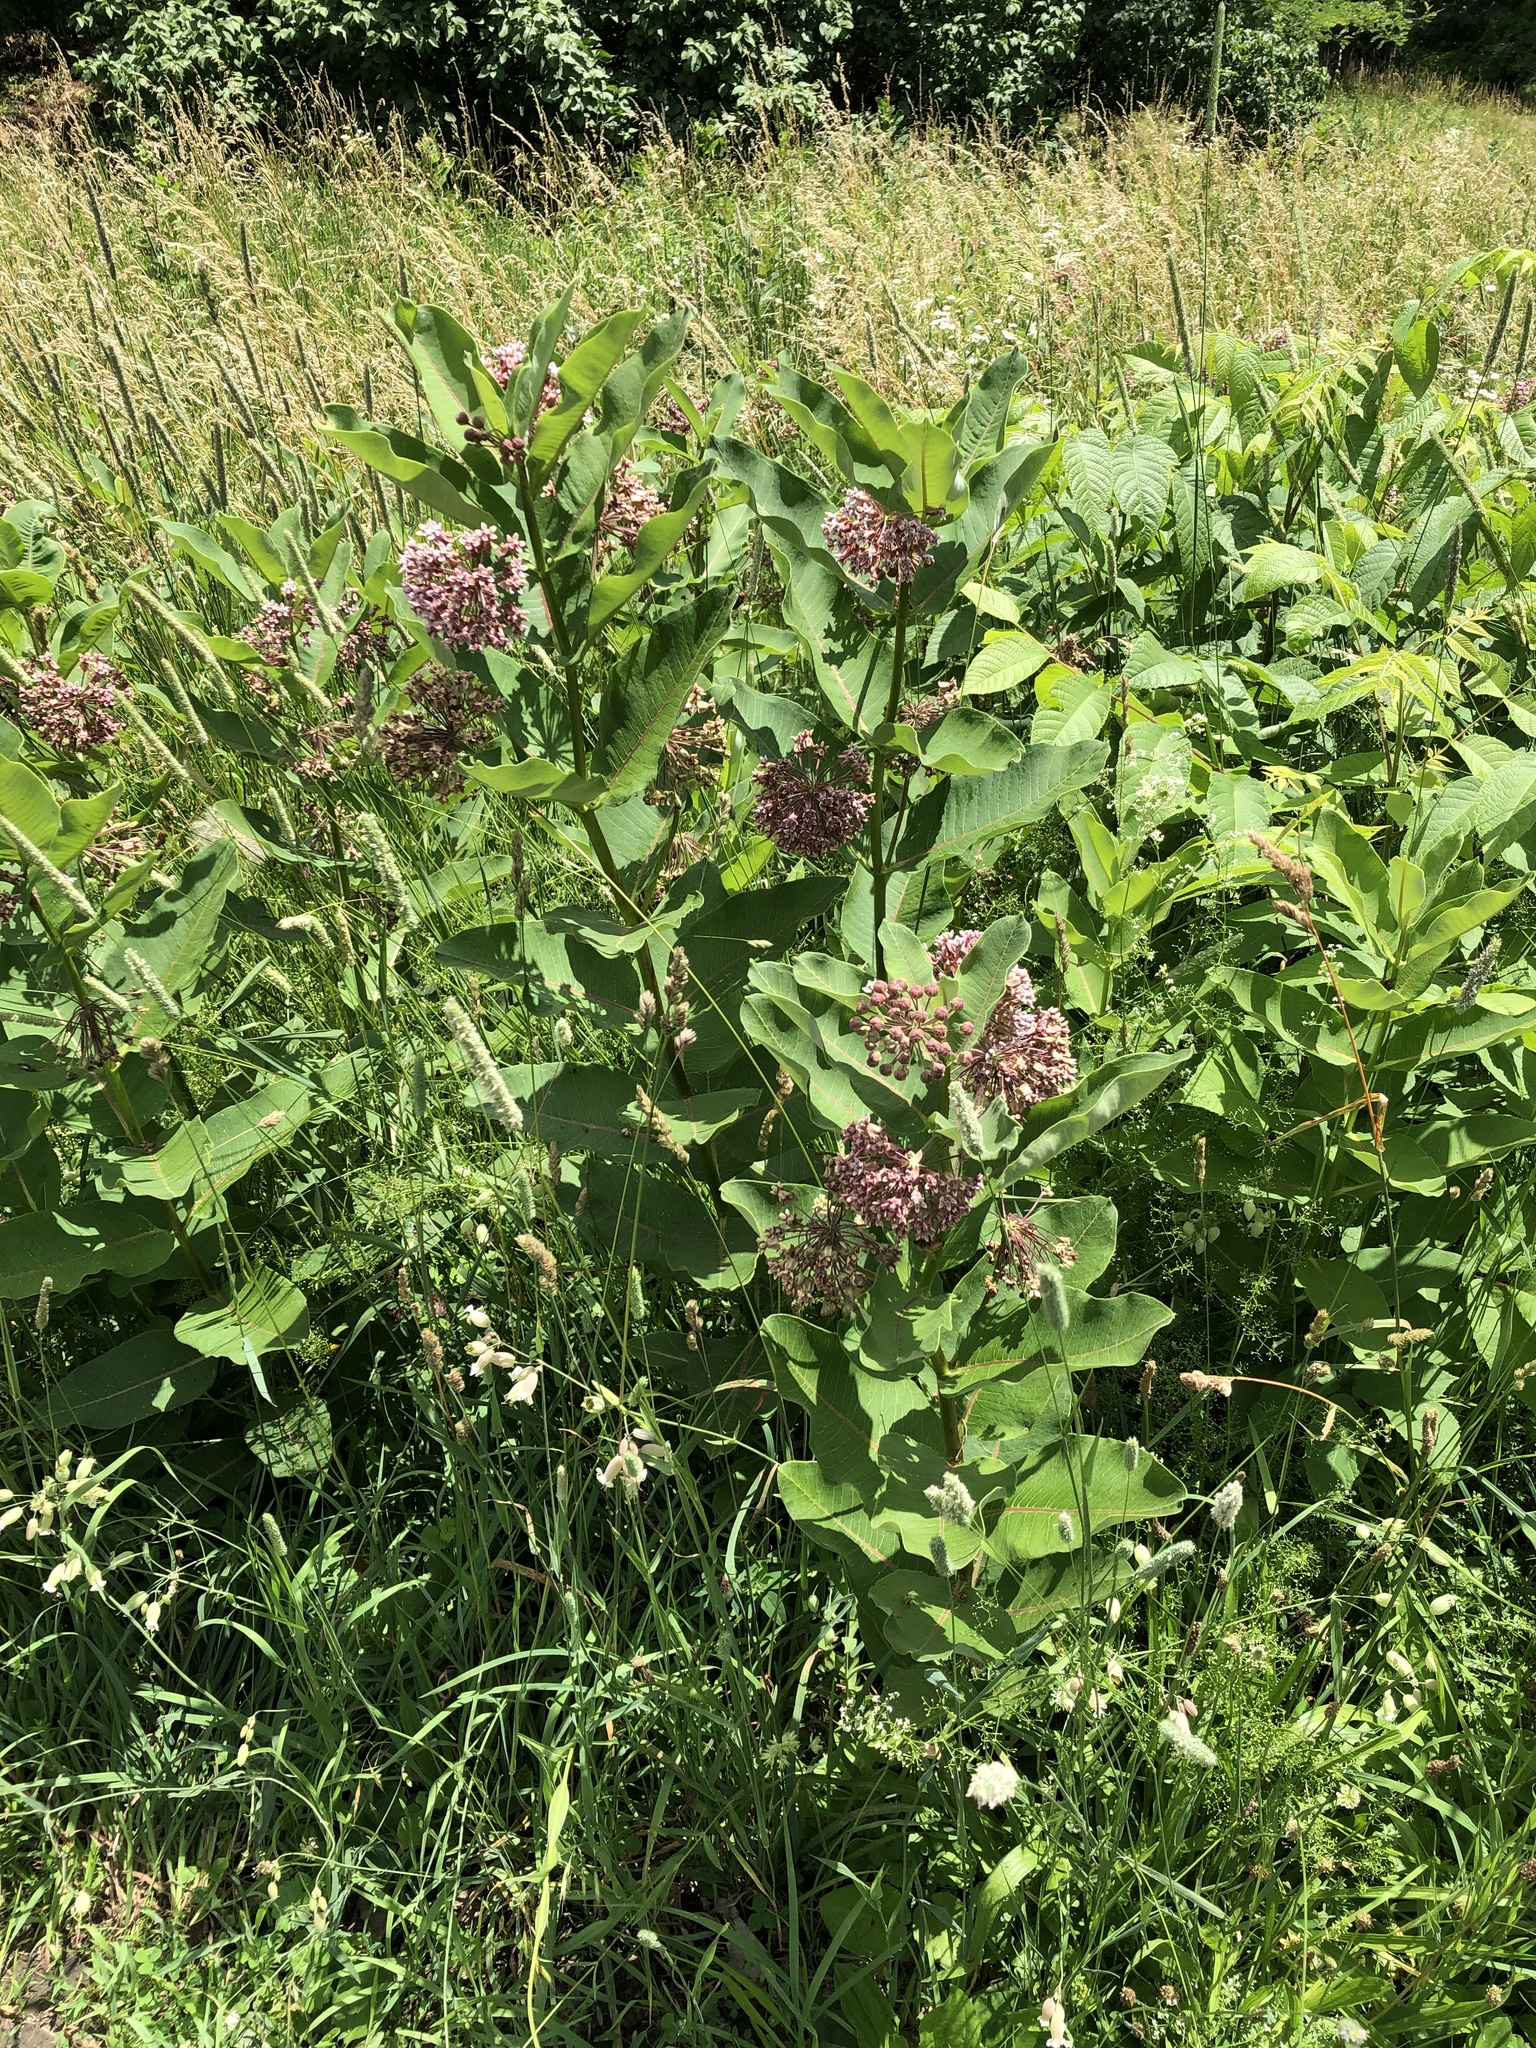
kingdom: Plantae
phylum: Tracheophyta
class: Magnoliopsida
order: Gentianales
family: Apocynaceae
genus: Asclepias
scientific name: Asclepias syriaca
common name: Common milkweed
